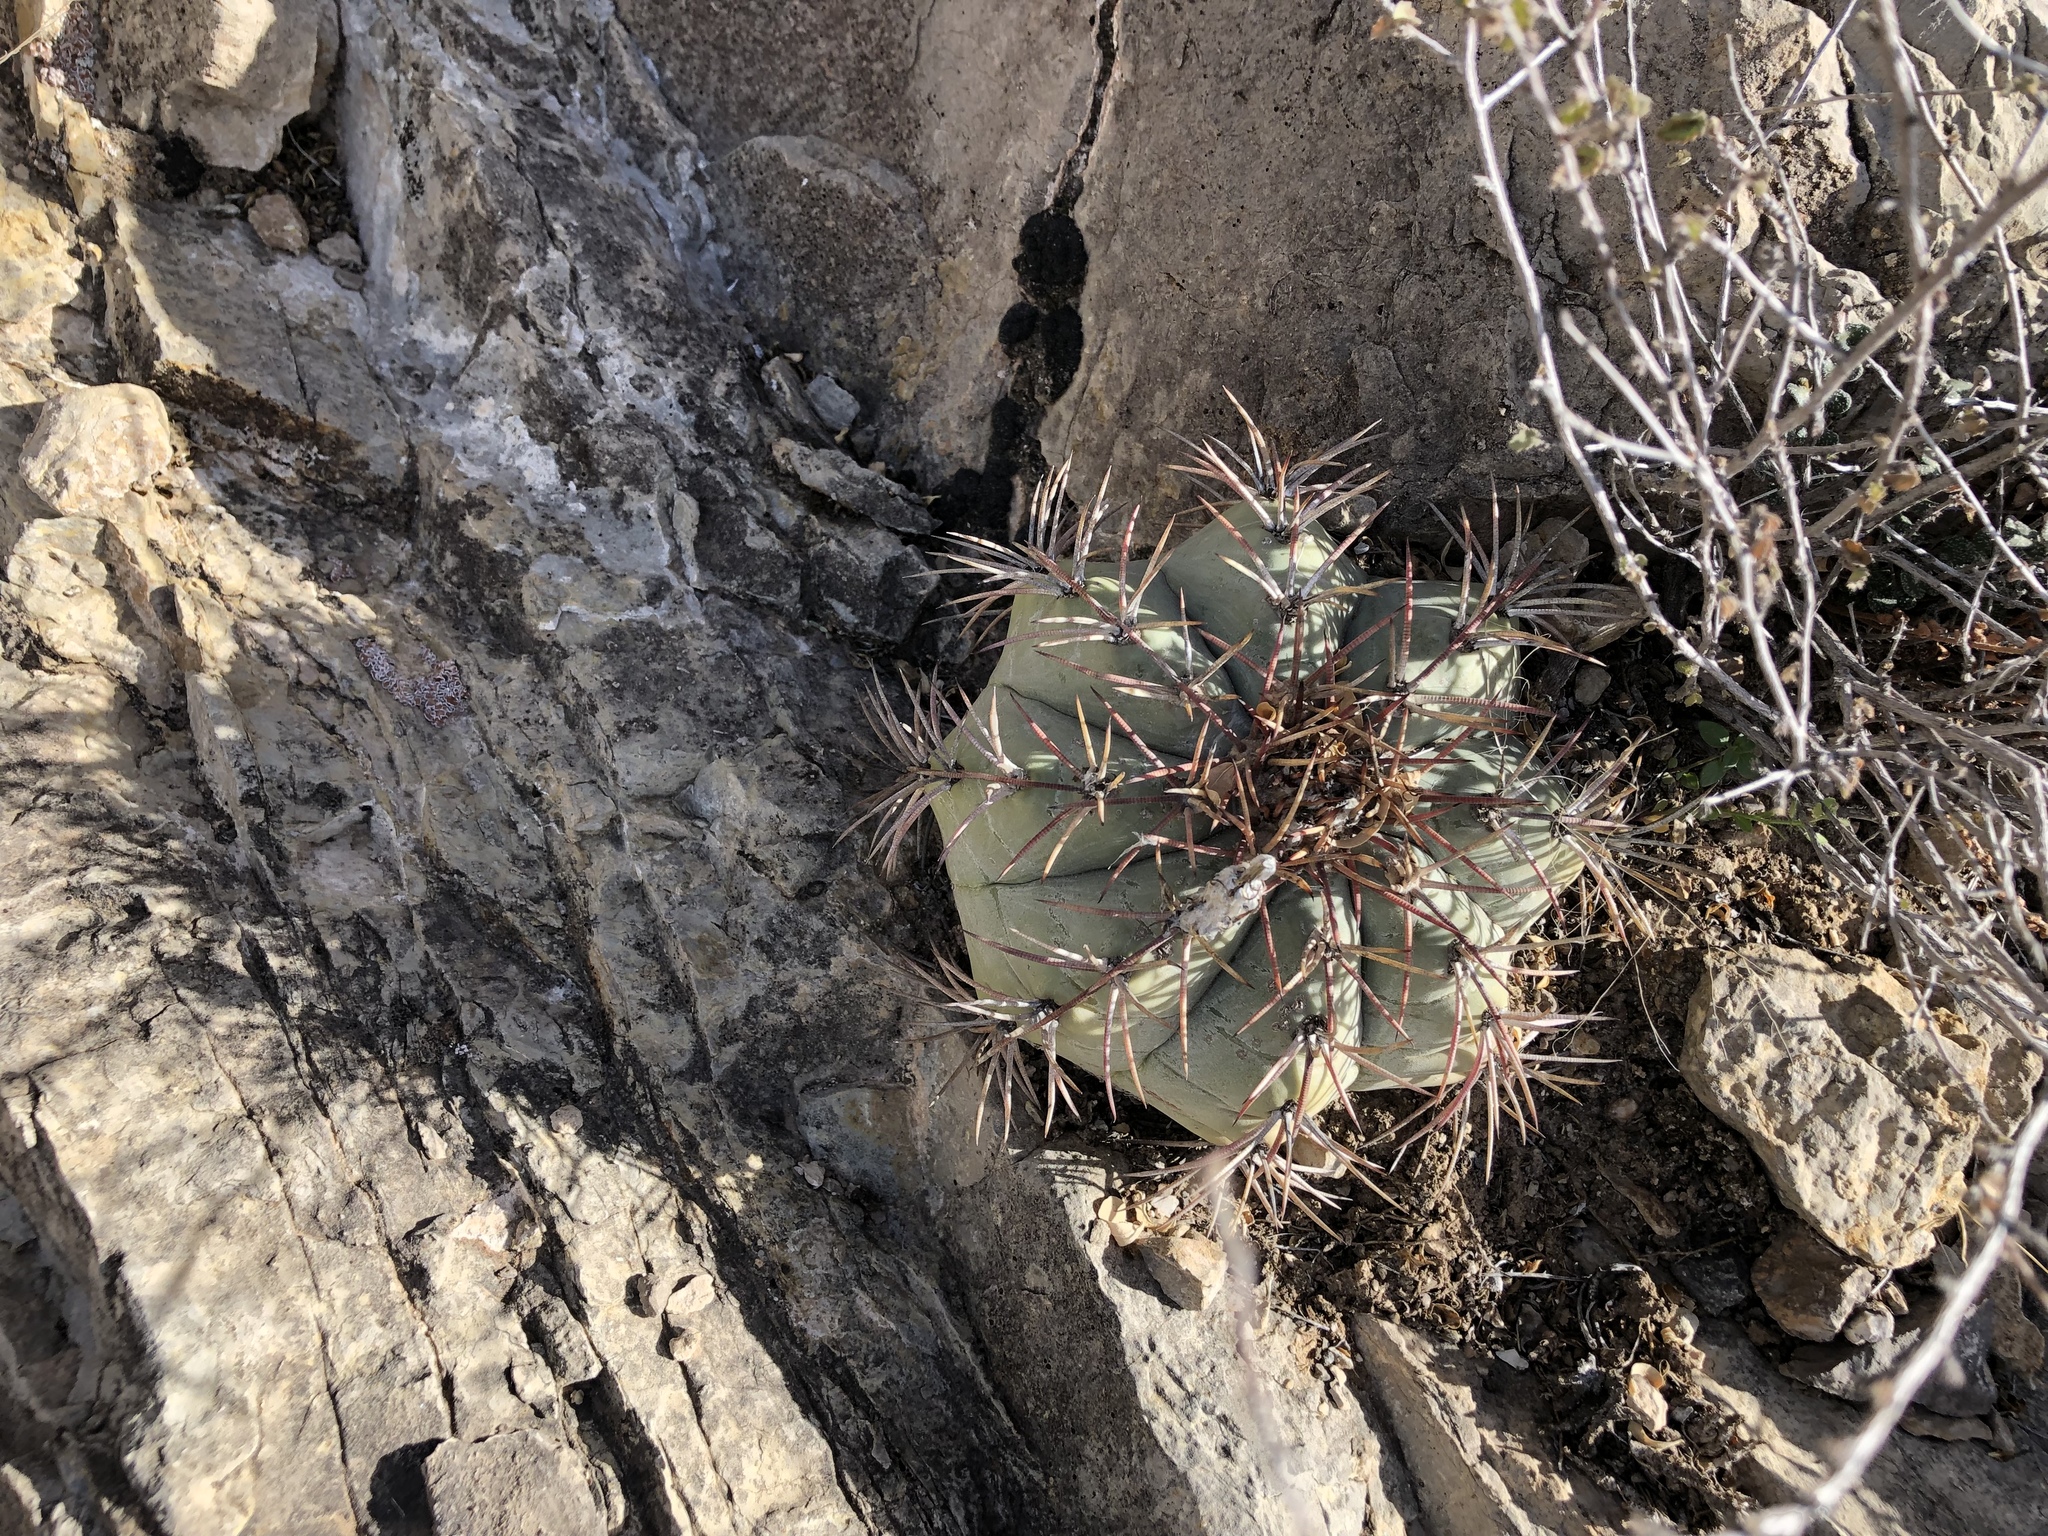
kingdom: Plantae
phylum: Tracheophyta
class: Magnoliopsida
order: Caryophyllales
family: Cactaceae
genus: Echinocactus
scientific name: Echinocactus horizonthalonius
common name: Devilshead
